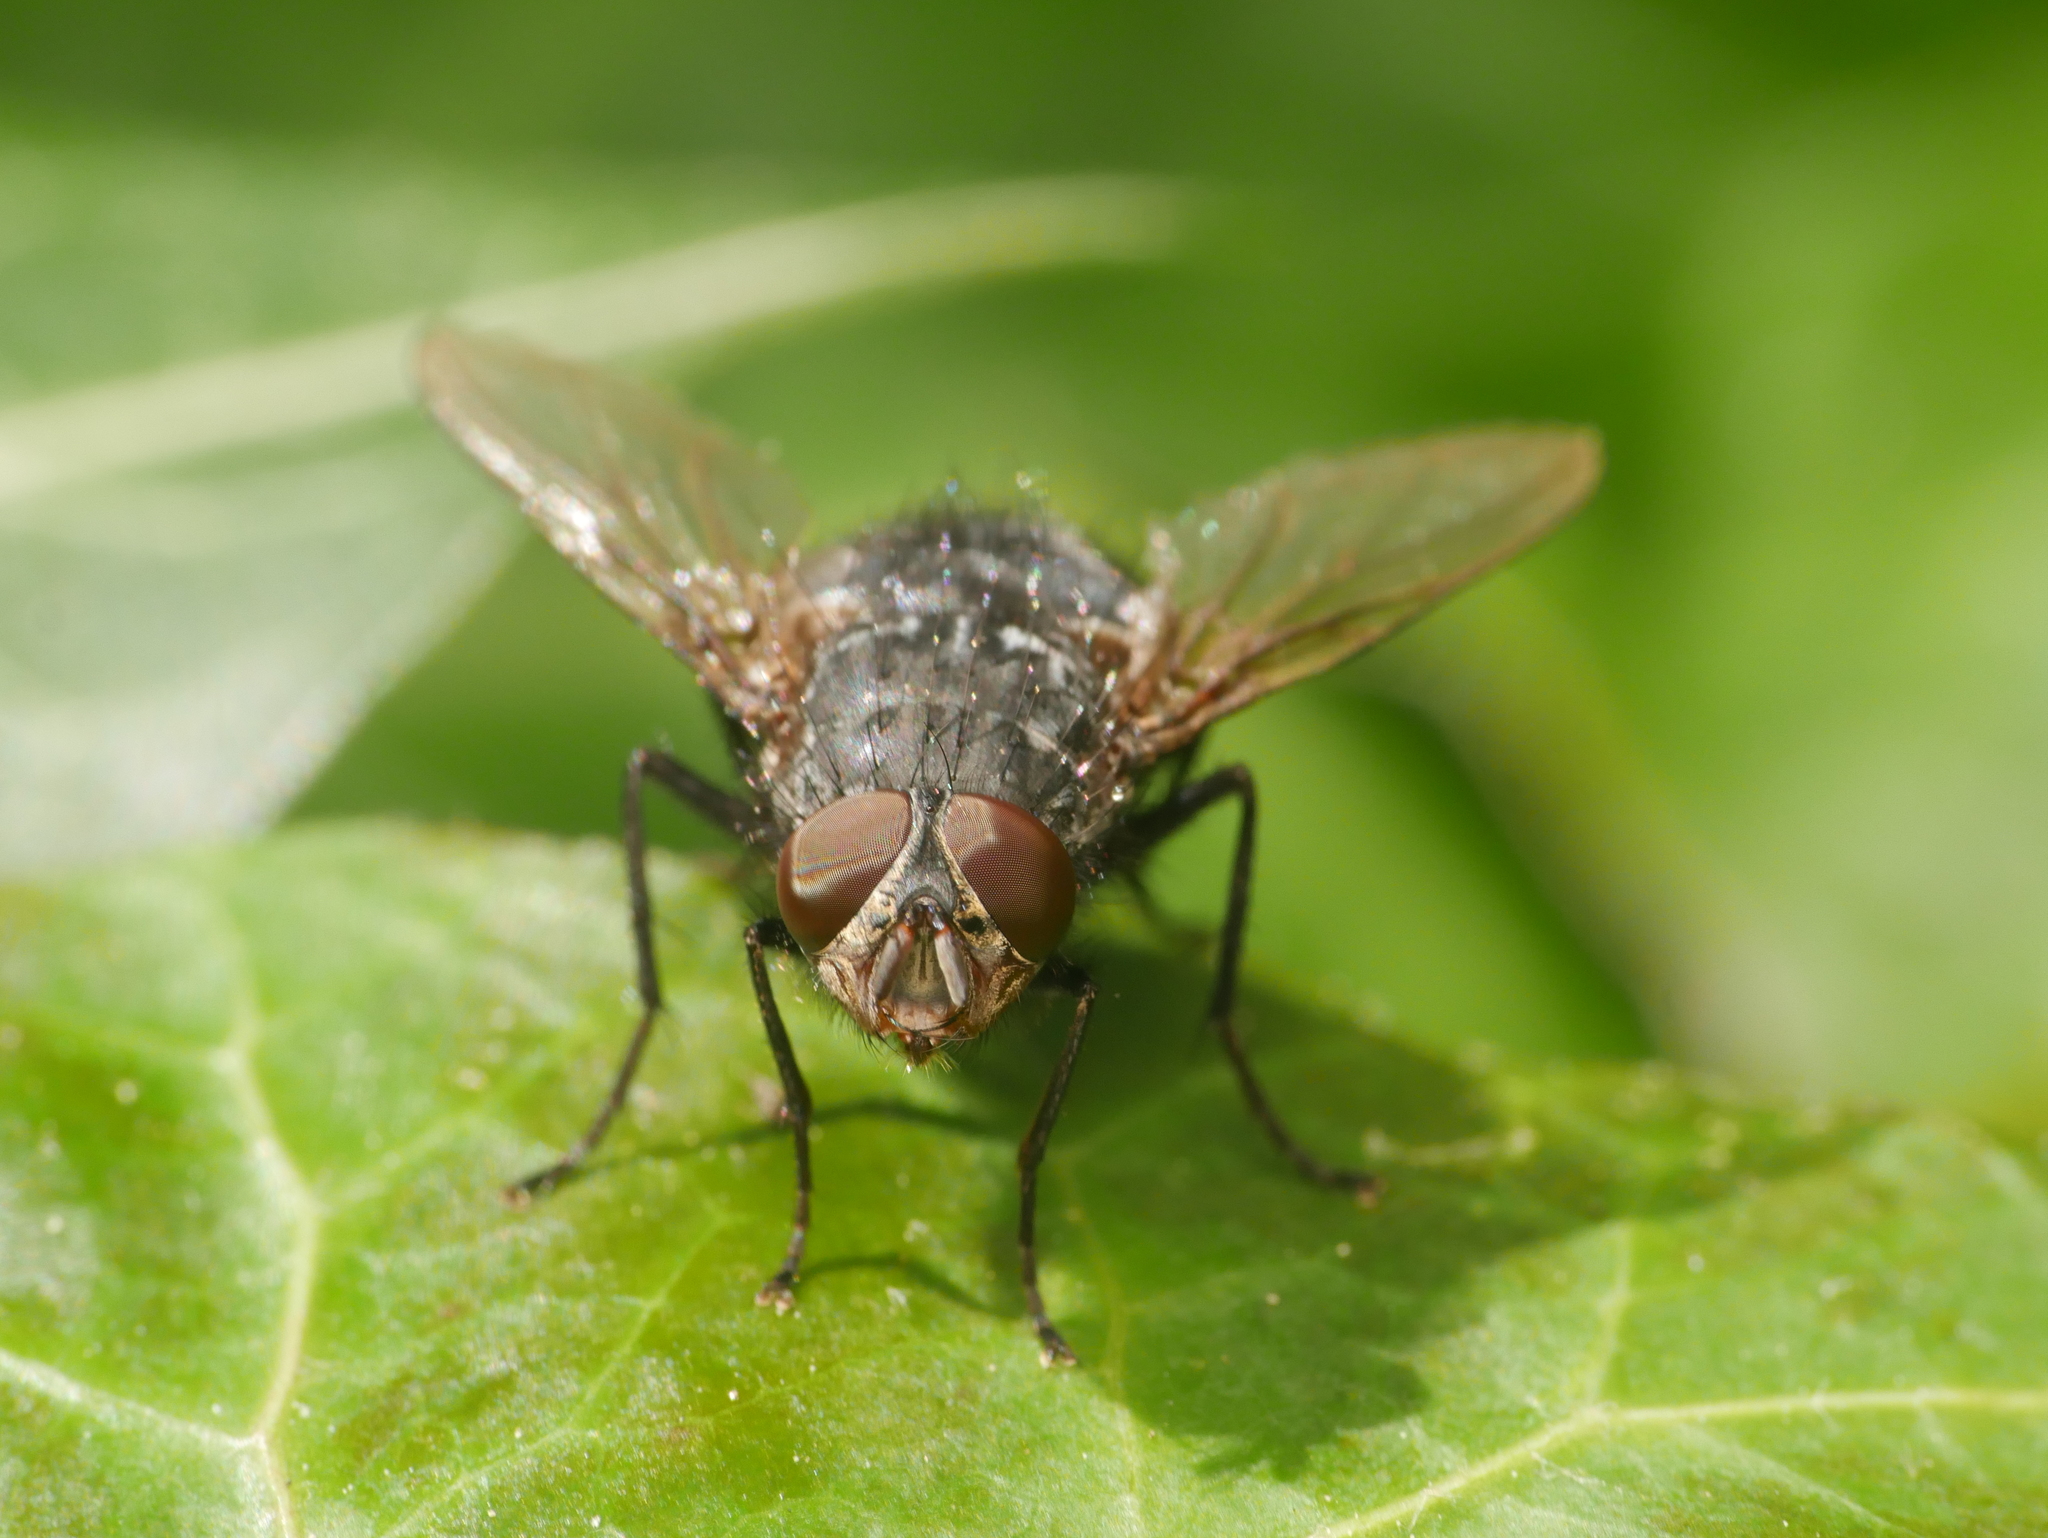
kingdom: Animalia
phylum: Arthropoda
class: Insecta
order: Diptera
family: Calliphoridae
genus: Calliphora
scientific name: Calliphora vicina
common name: Common blow flie
